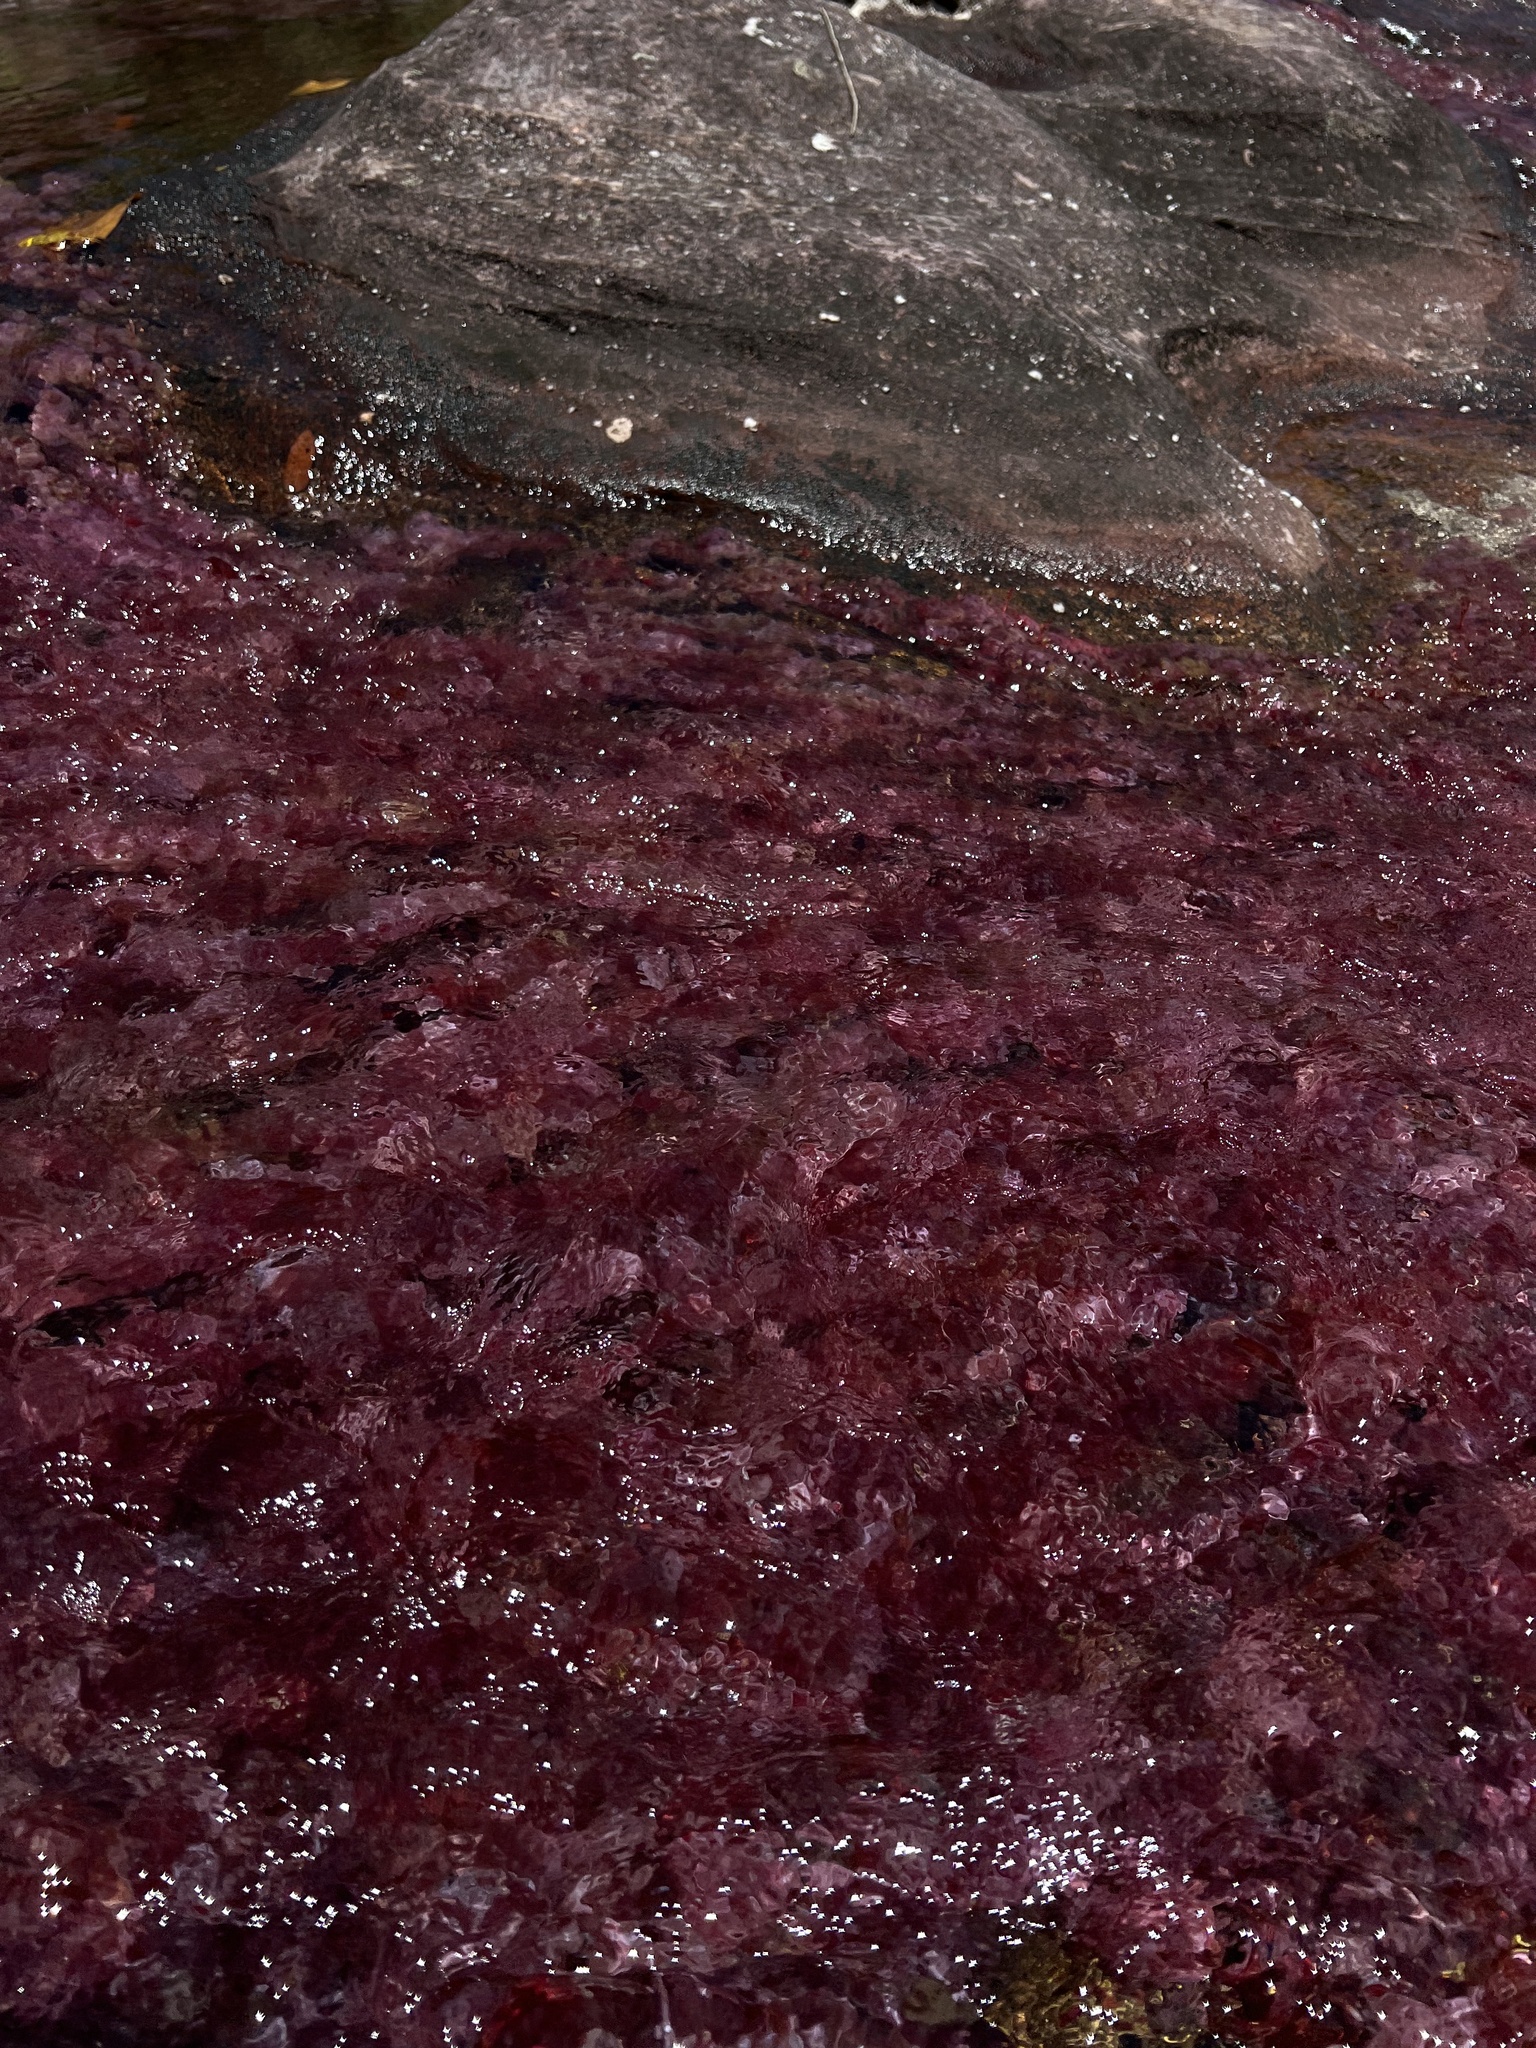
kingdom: Plantae
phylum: Tracheophyta
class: Magnoliopsida
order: Malpighiales
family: Podostemaceae
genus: Rhyncholacis
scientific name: Rhyncholacis clavigera
